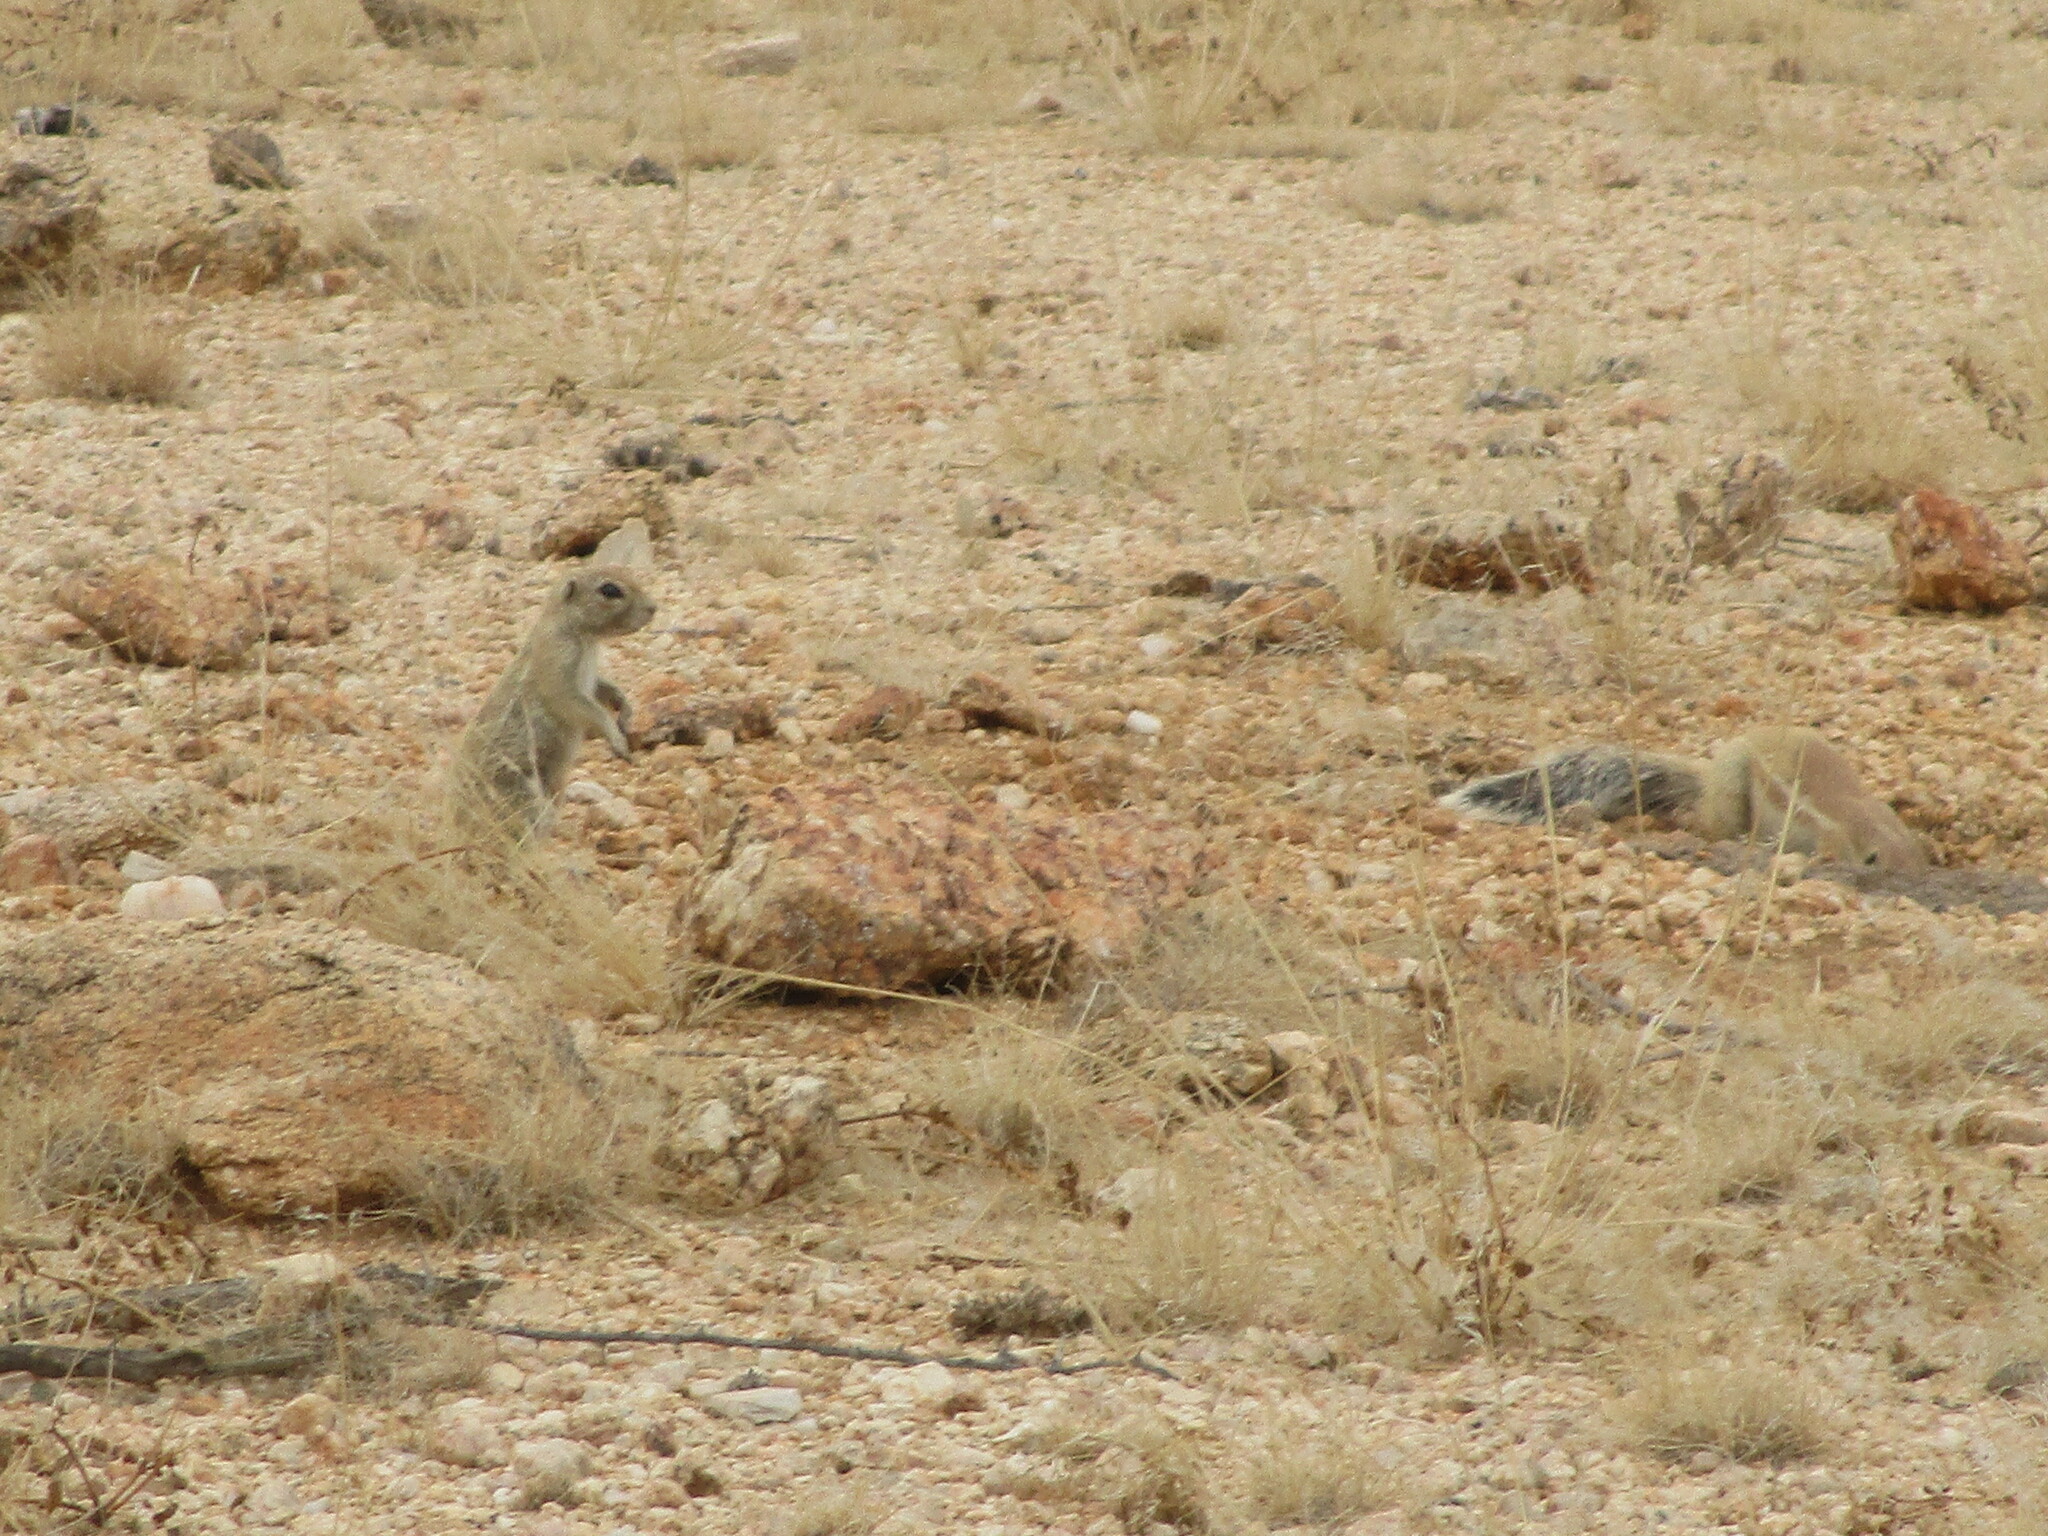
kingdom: Animalia
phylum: Chordata
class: Mammalia
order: Rodentia
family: Sciuridae
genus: Xerus
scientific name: Xerus inauris
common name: South african ground squirrel
